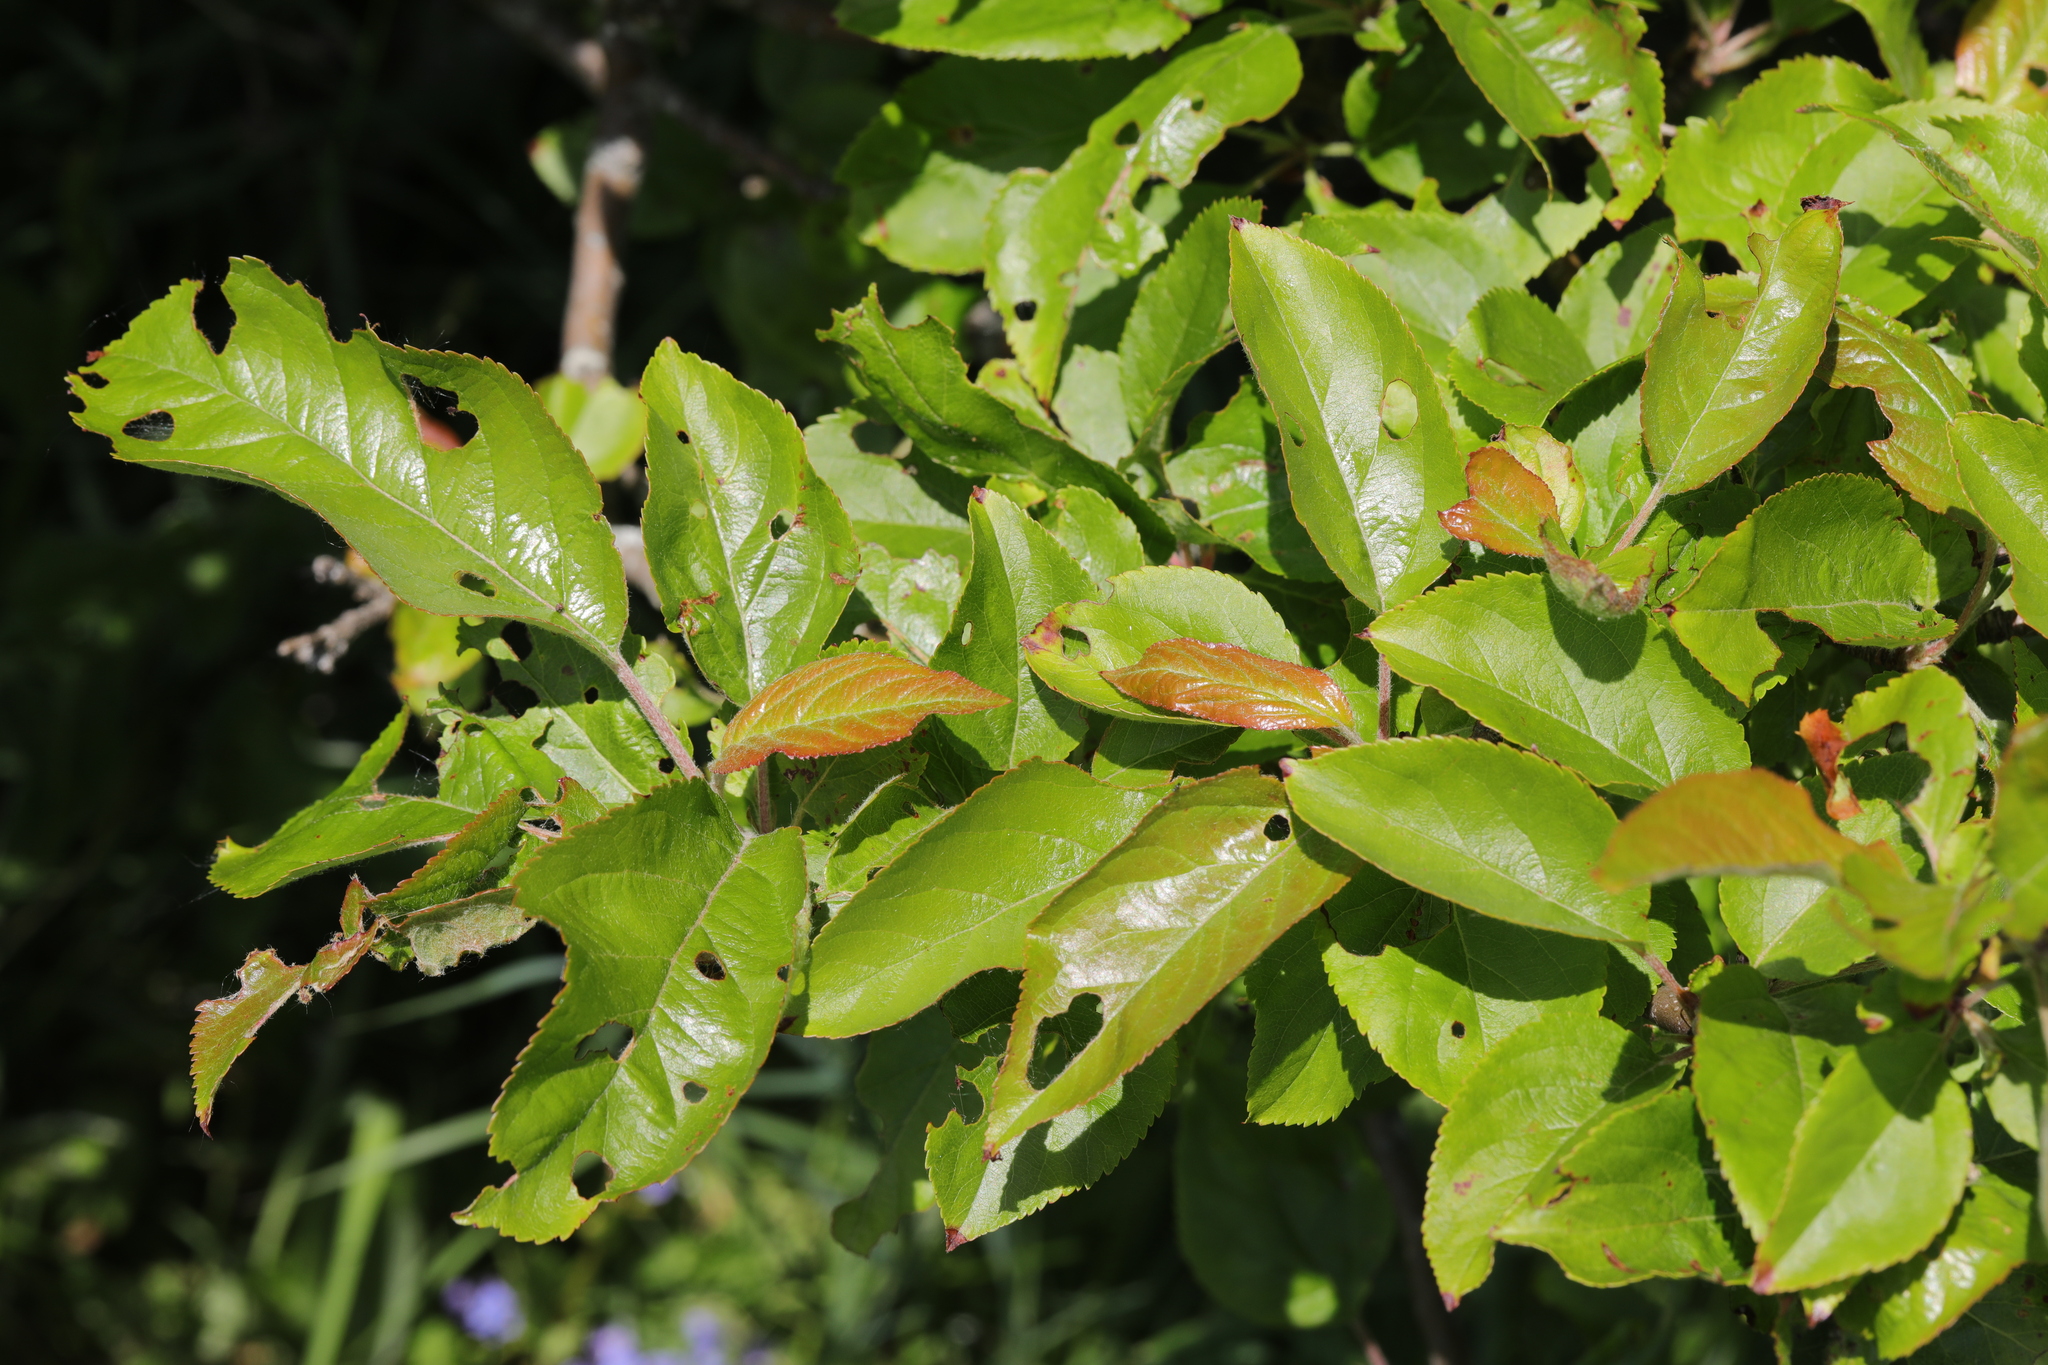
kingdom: Plantae
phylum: Tracheophyta
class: Magnoliopsida
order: Rosales
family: Rosaceae
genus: Malus
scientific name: Malus domestica
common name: Apple
